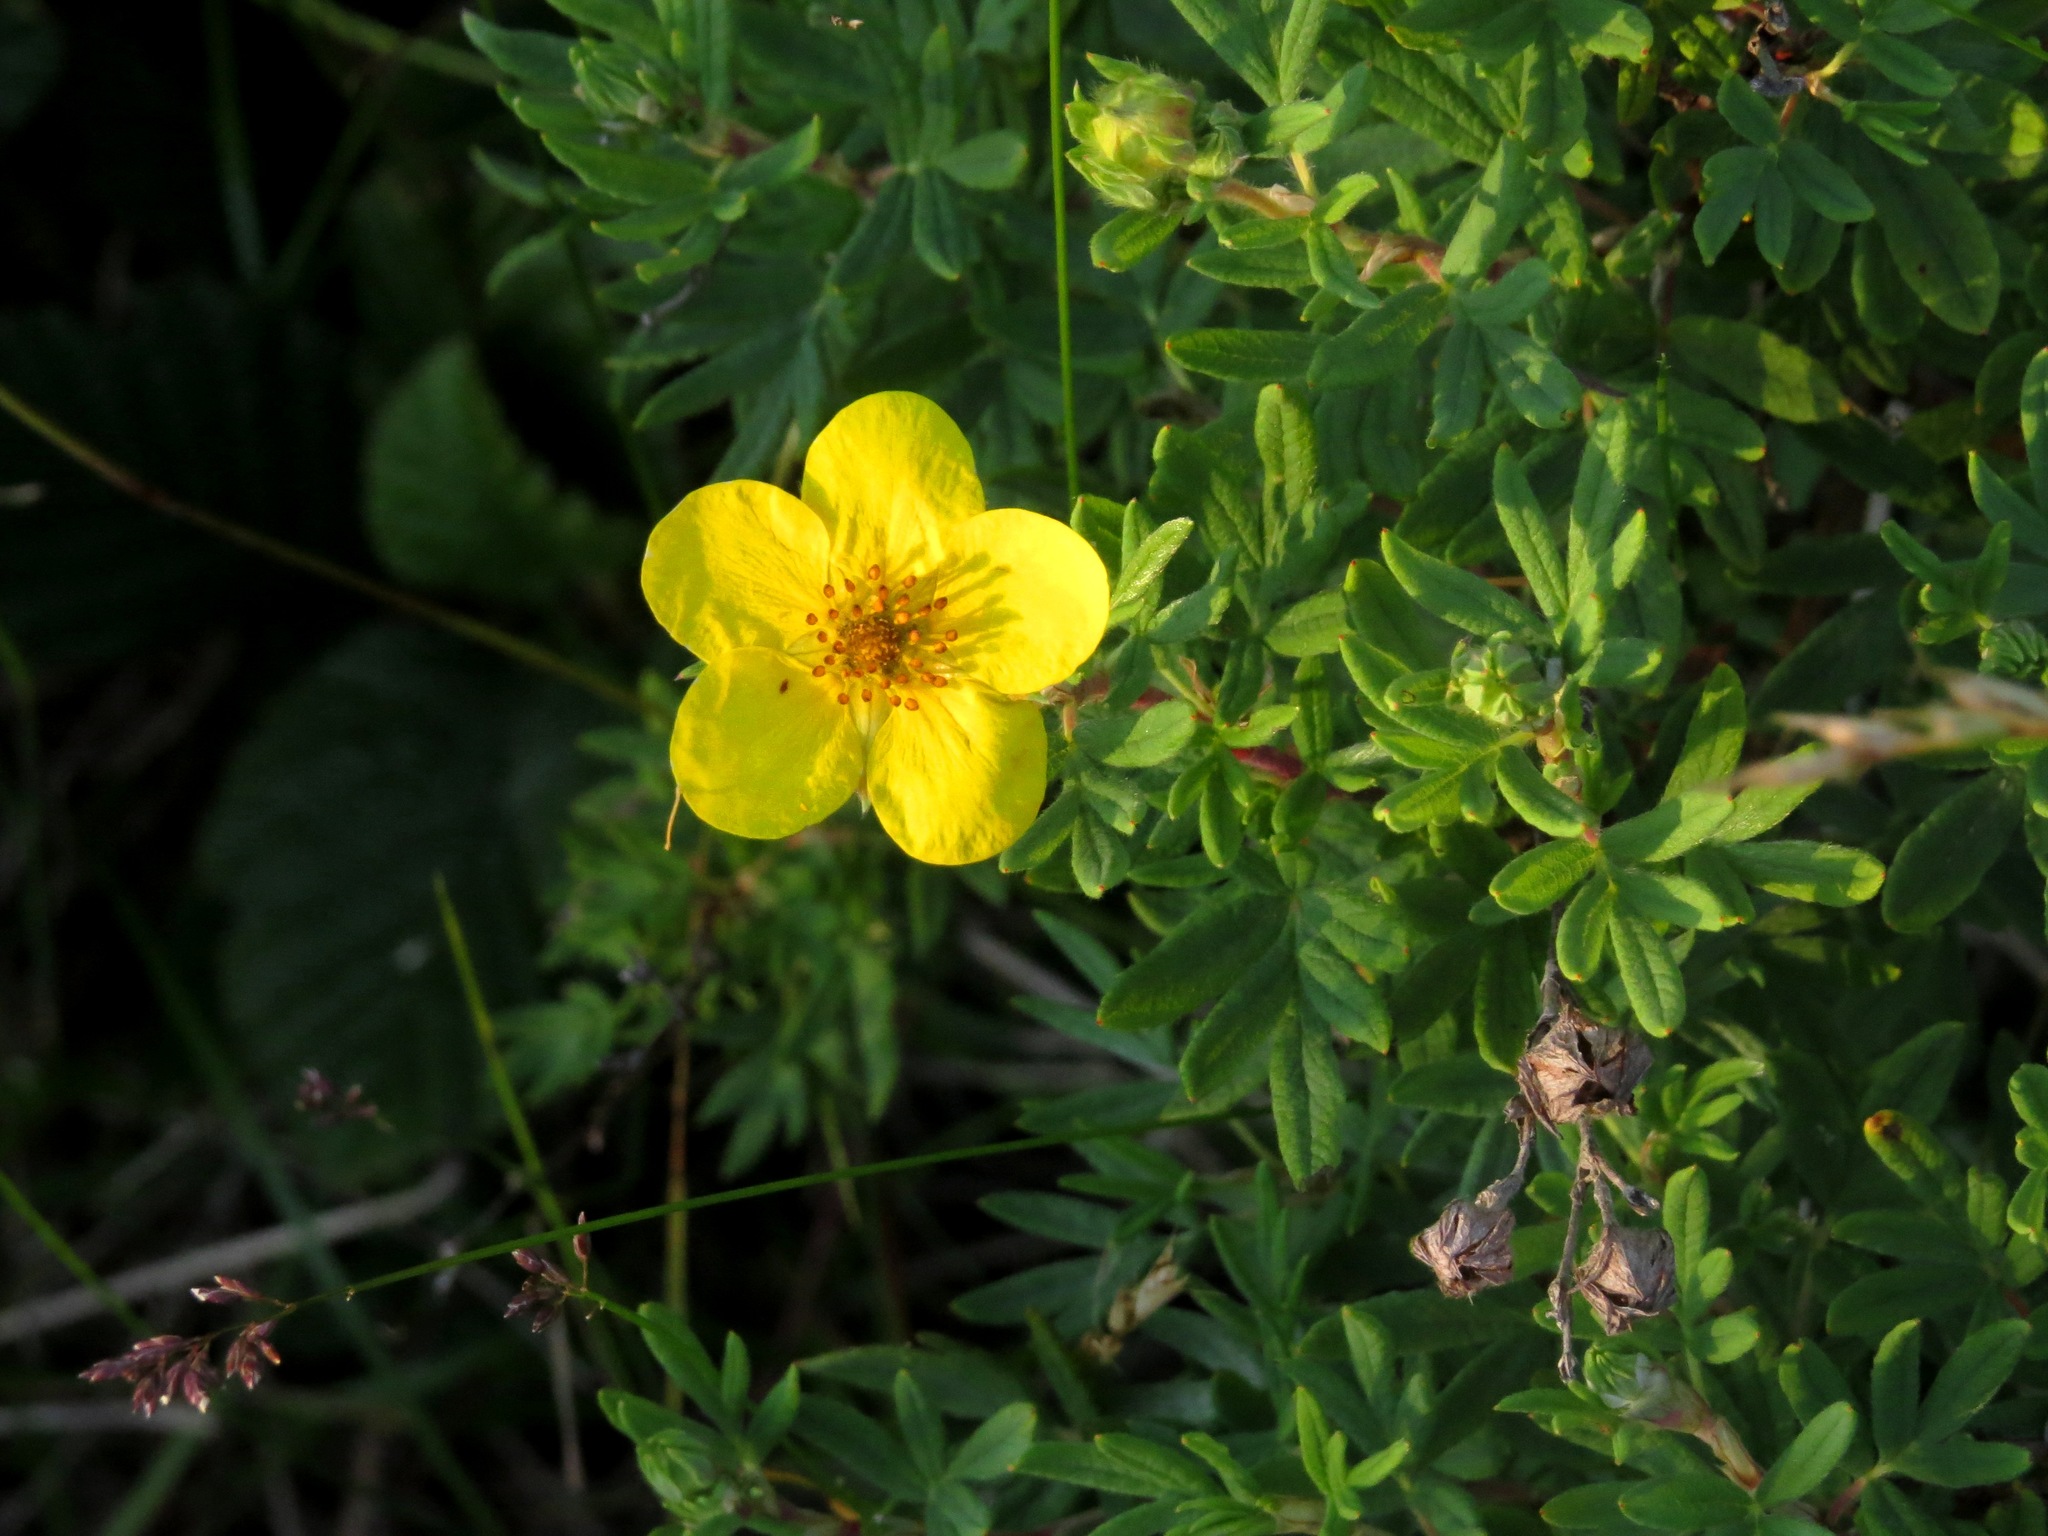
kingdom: Plantae
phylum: Tracheophyta
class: Magnoliopsida
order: Rosales
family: Rosaceae
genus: Dasiphora
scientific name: Dasiphora fruticosa
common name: Shrubby cinquefoil
